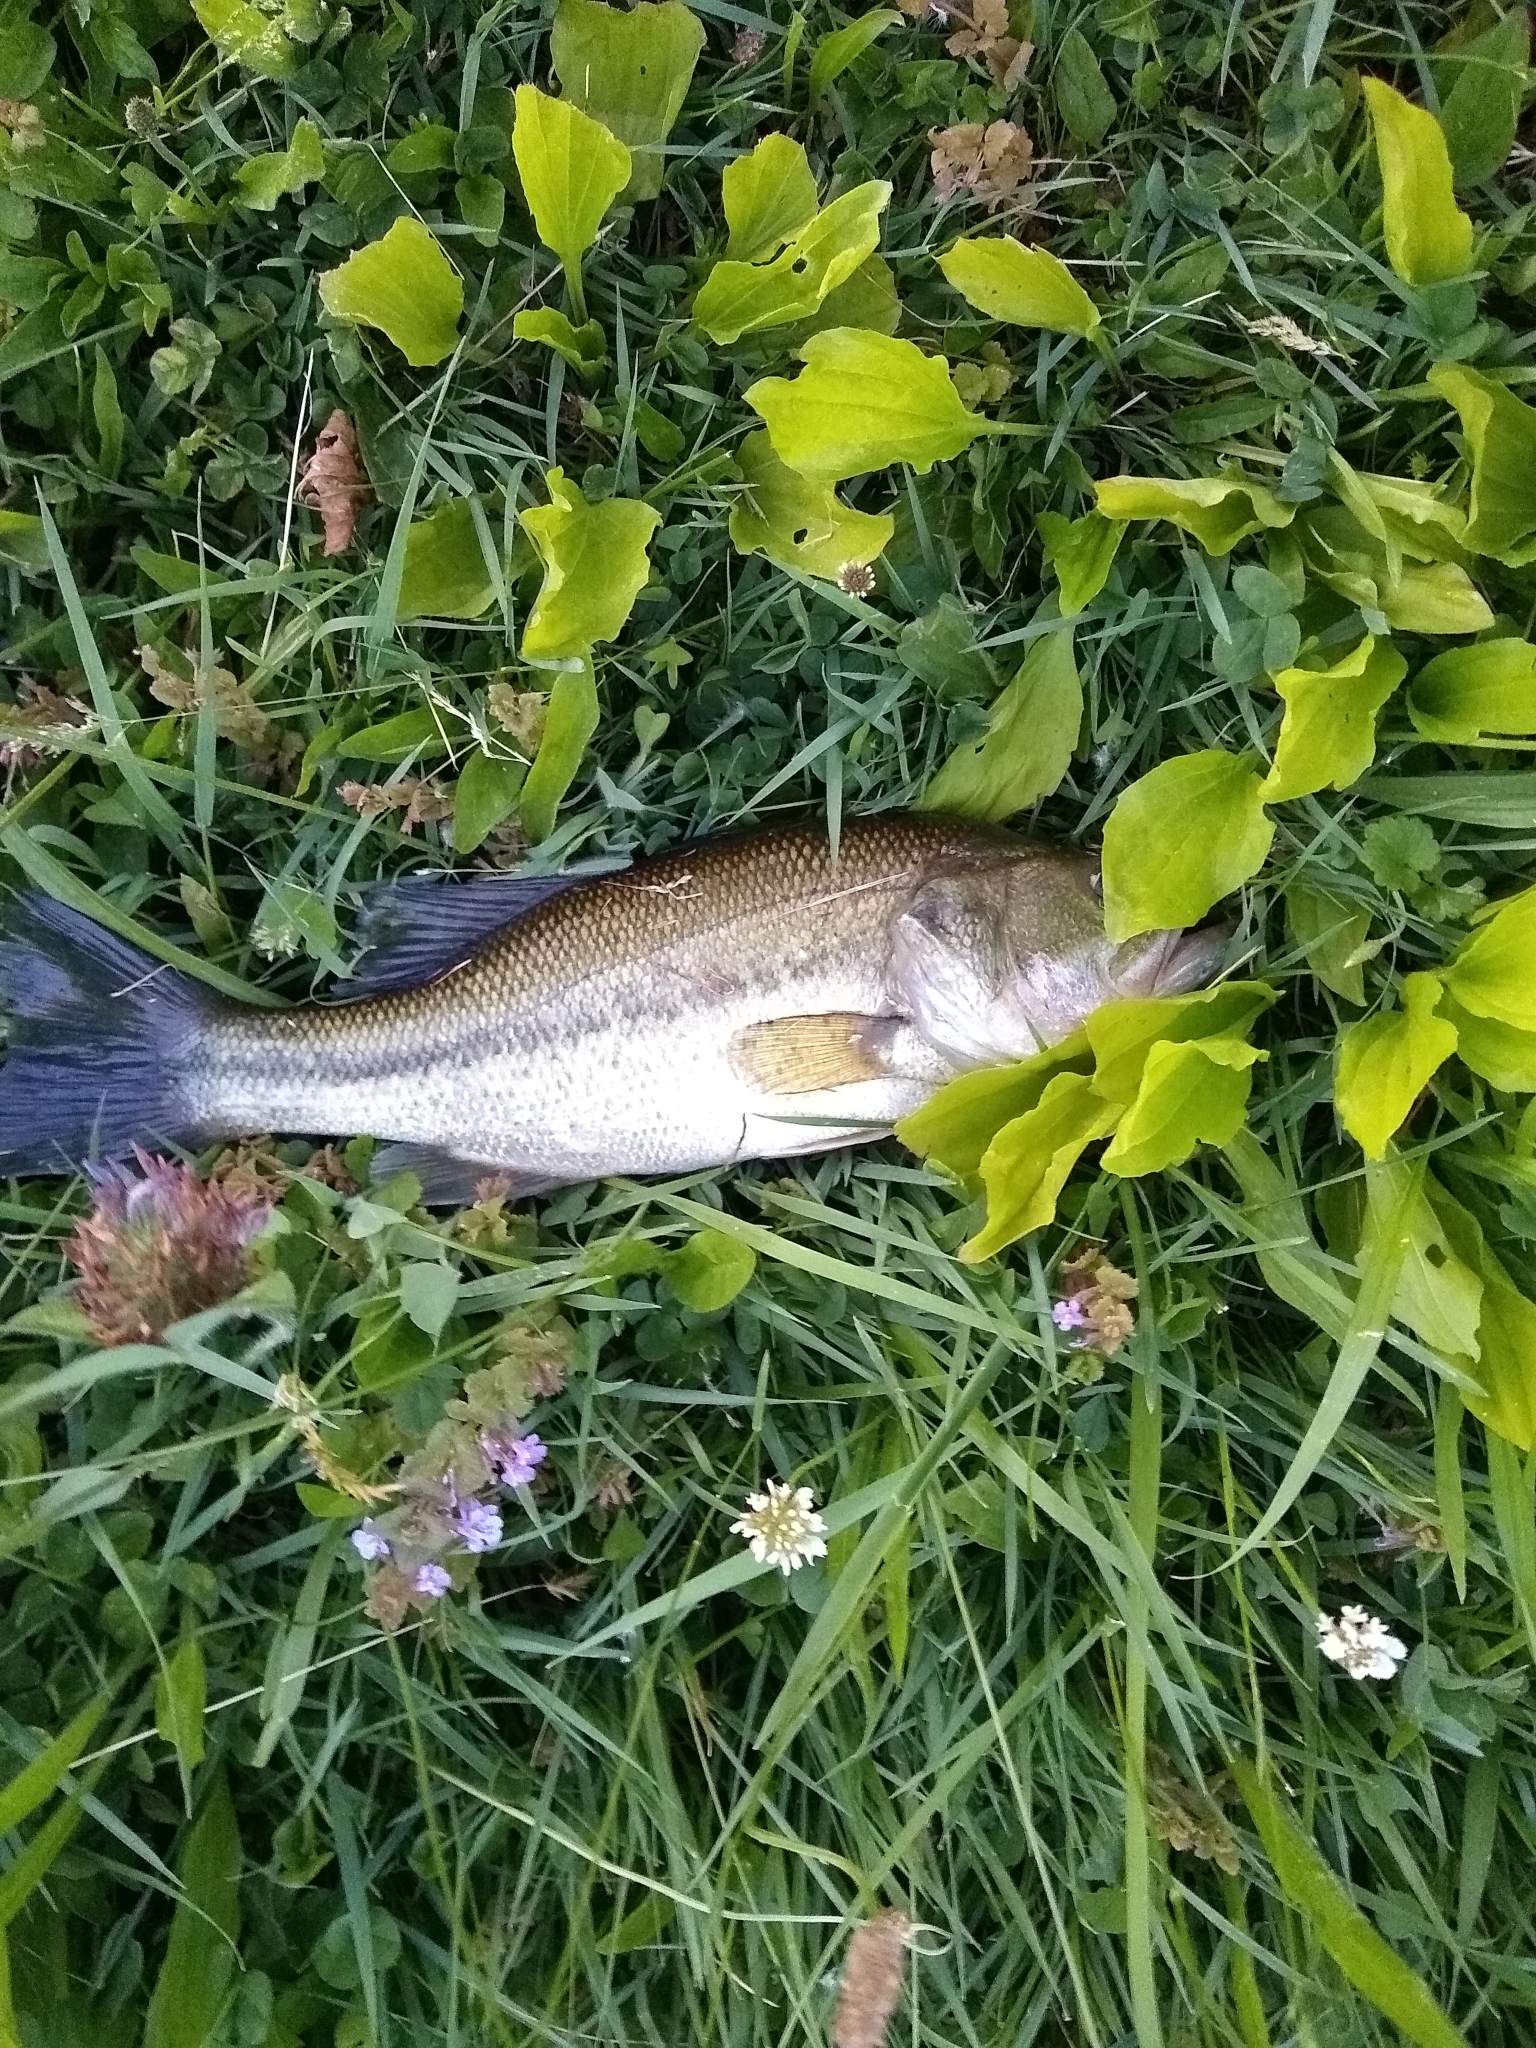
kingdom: Animalia
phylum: Chordata
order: Perciformes
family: Centrarchidae
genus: Micropterus
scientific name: Micropterus
